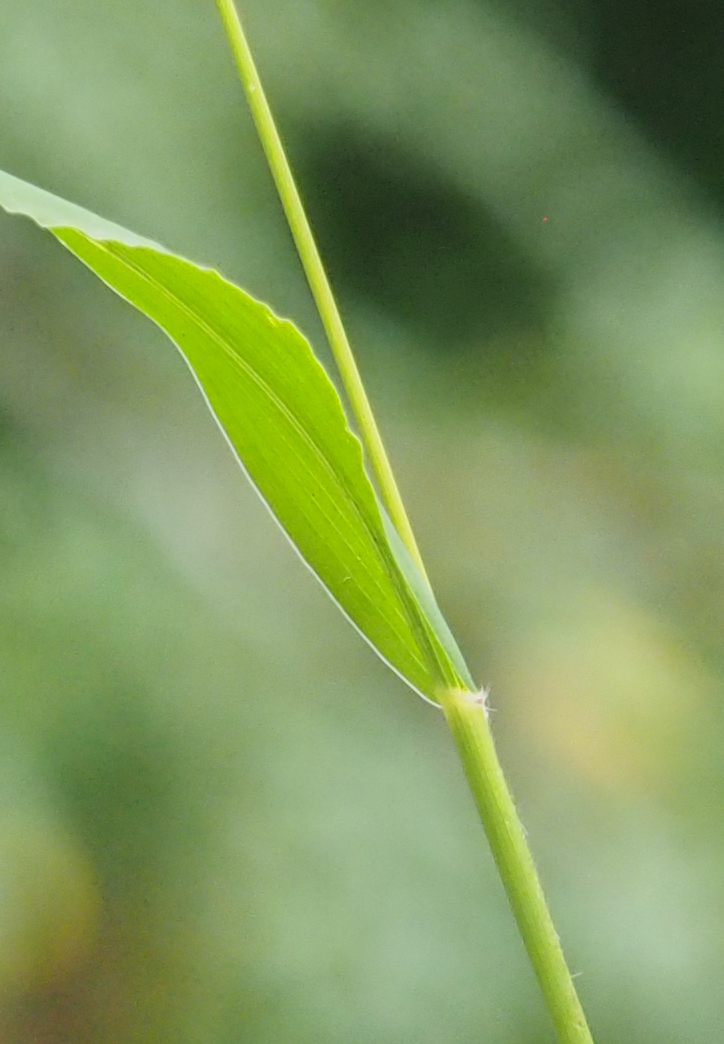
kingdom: Plantae
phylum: Tracheophyta
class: Liliopsida
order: Poales
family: Poaceae
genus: Setaria
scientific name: Setaria viridis
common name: Green bristlegrass
